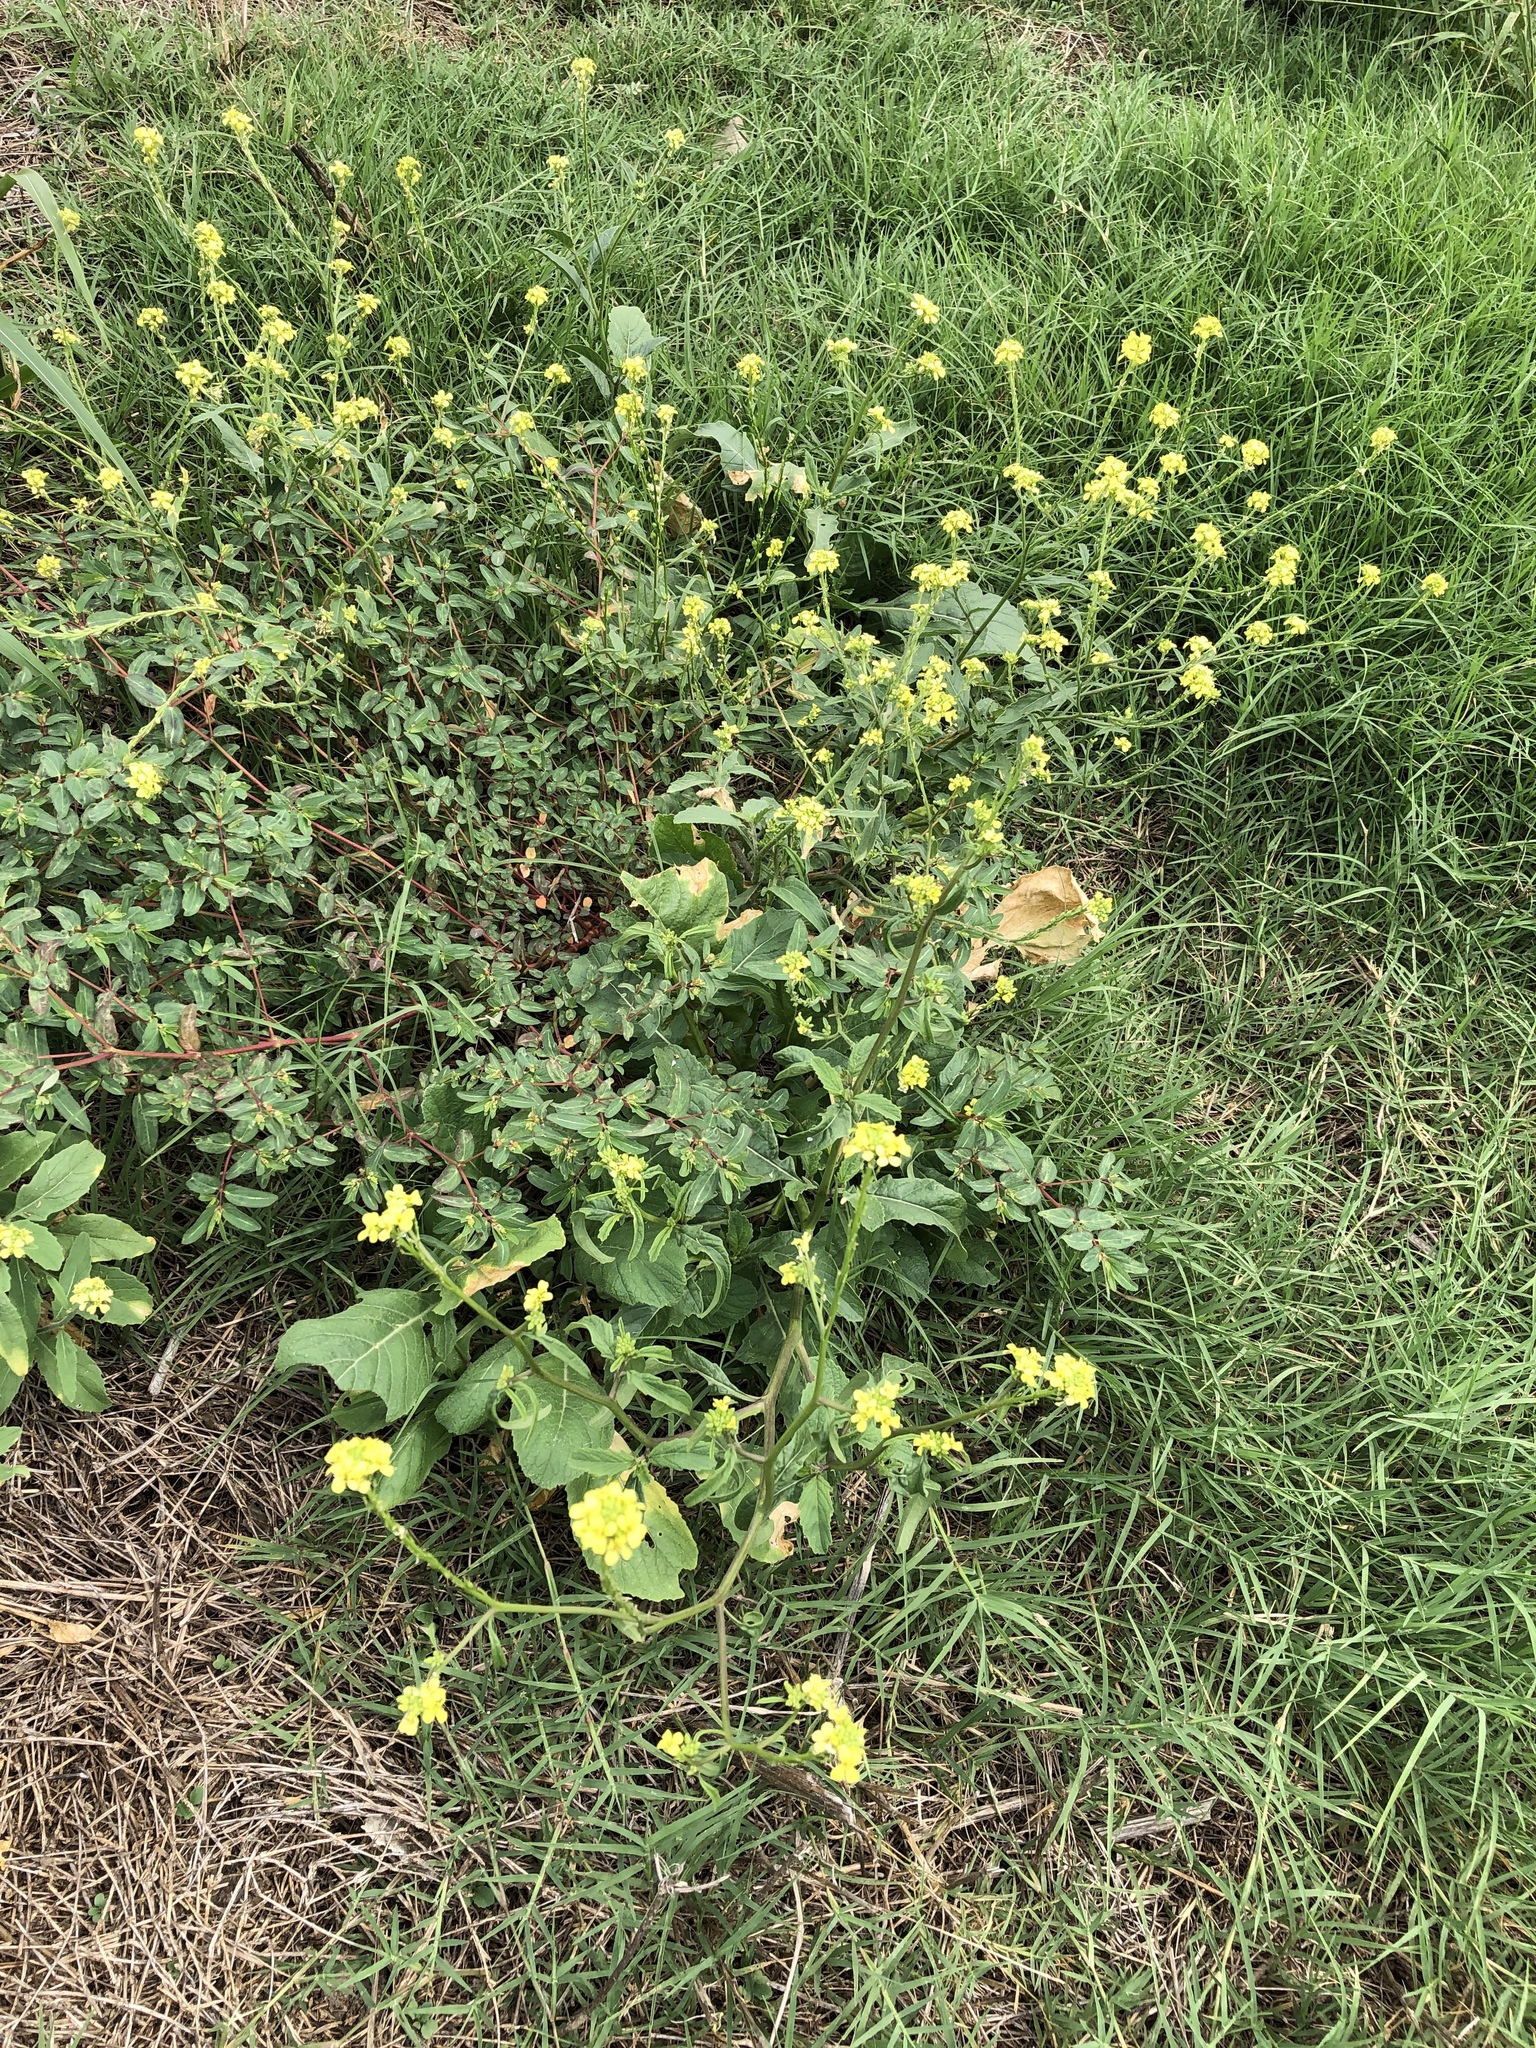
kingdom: Plantae
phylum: Tracheophyta
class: Magnoliopsida
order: Brassicales
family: Brassicaceae
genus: Rapistrum
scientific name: Rapistrum rugosum
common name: Annual bastardcabbage
